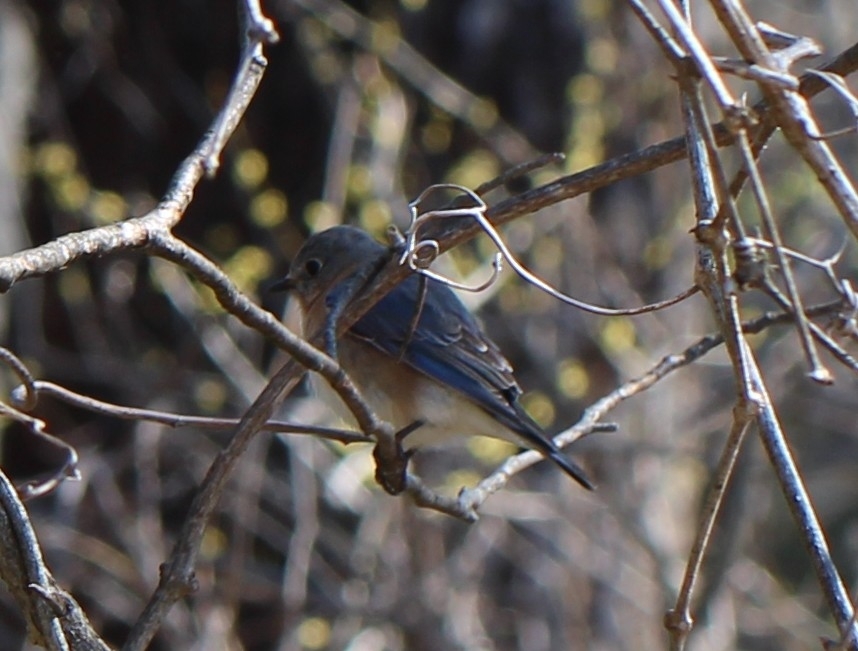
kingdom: Animalia
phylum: Chordata
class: Aves
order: Passeriformes
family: Turdidae
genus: Sialia
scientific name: Sialia sialis
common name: Eastern bluebird
